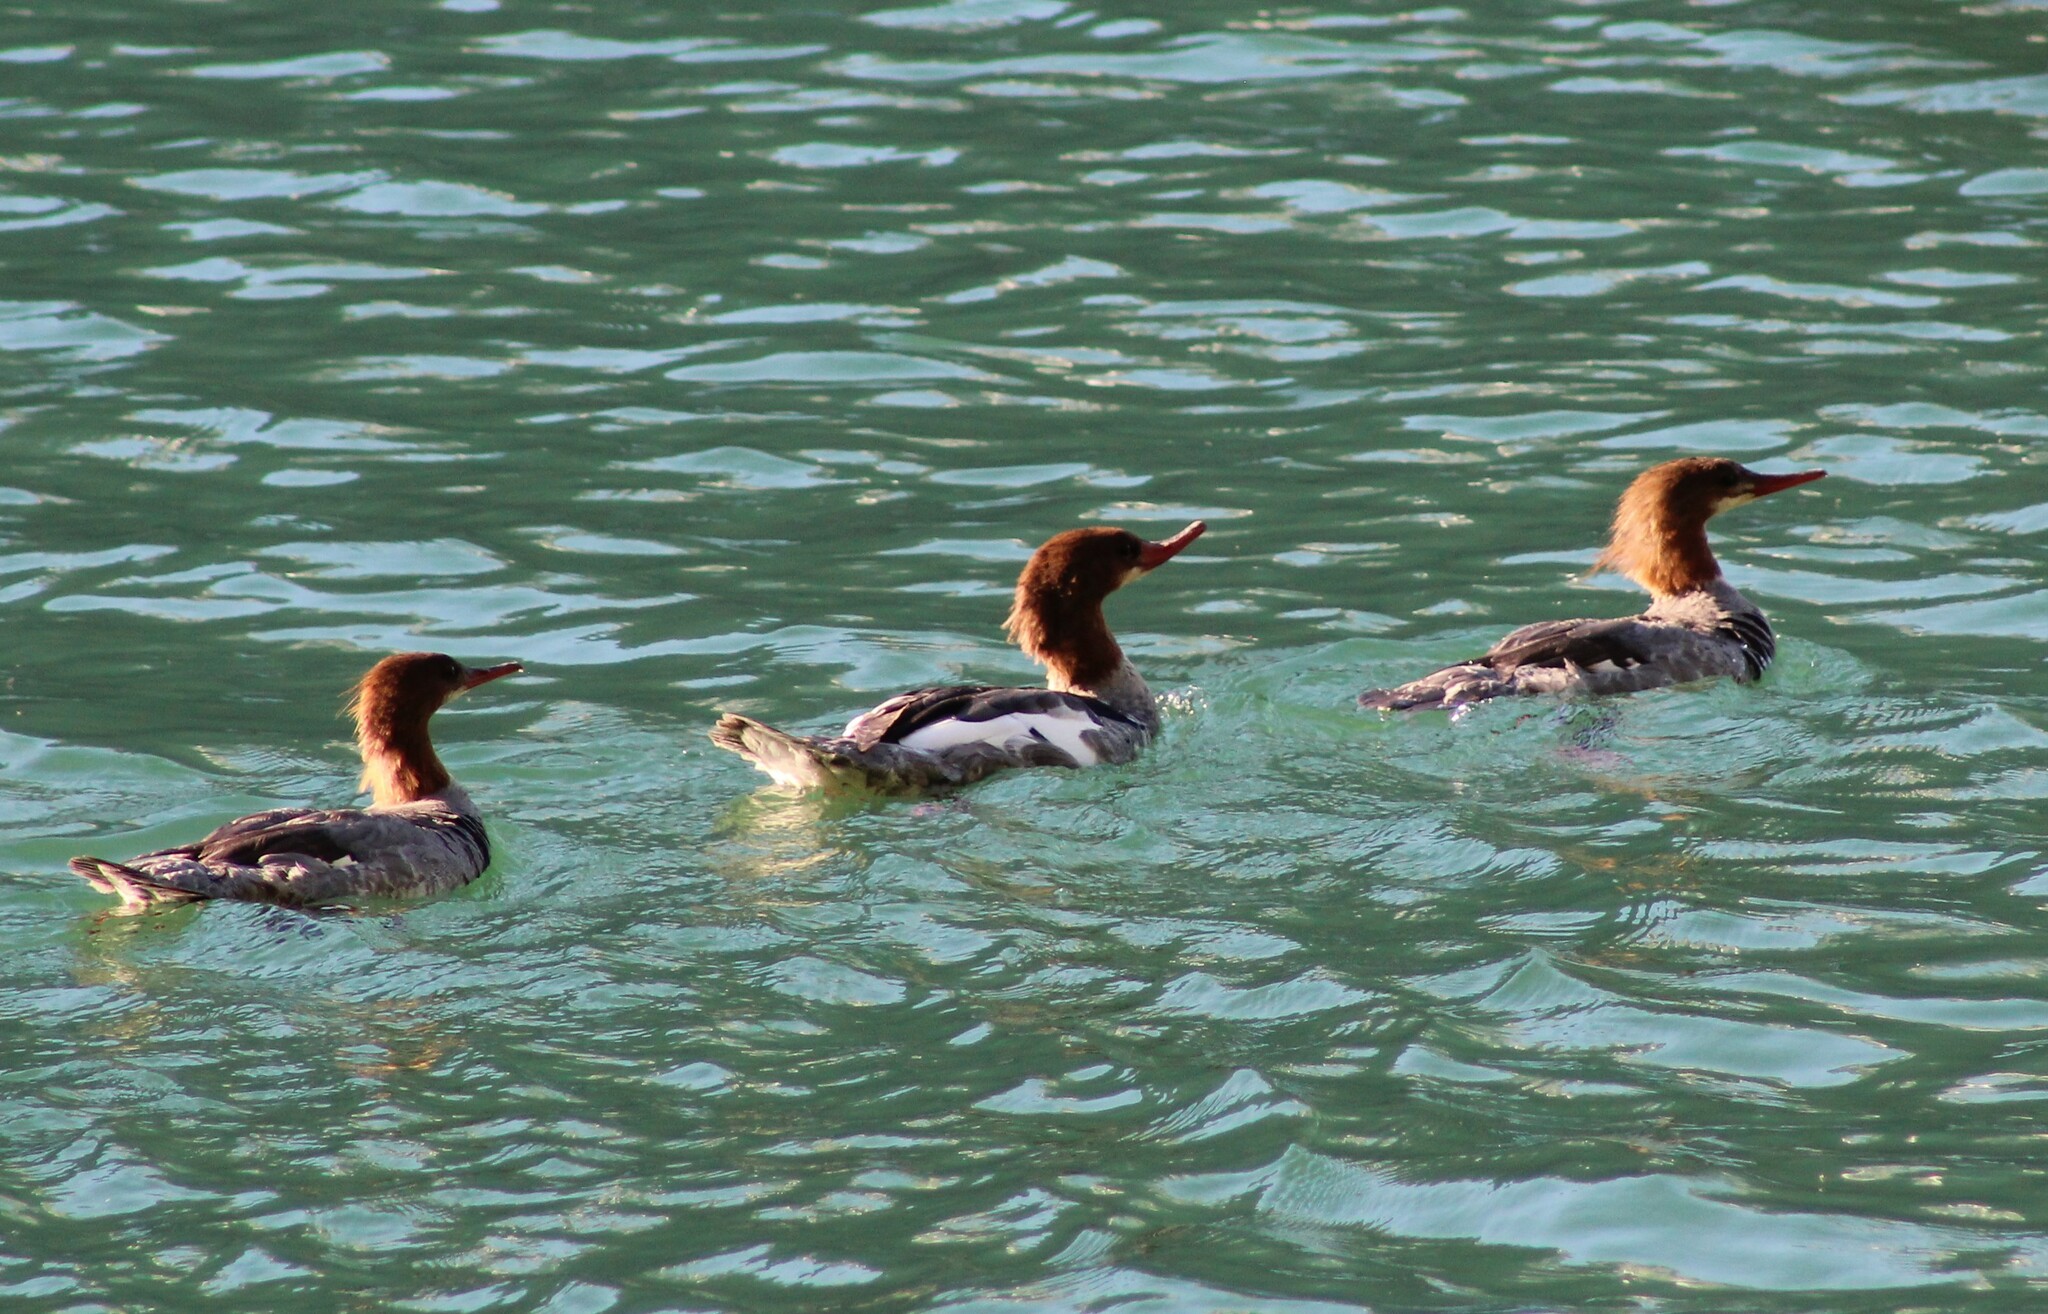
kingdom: Animalia
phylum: Chordata
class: Aves
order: Anseriformes
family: Anatidae
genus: Mergus
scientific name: Mergus merganser
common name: Common merganser
